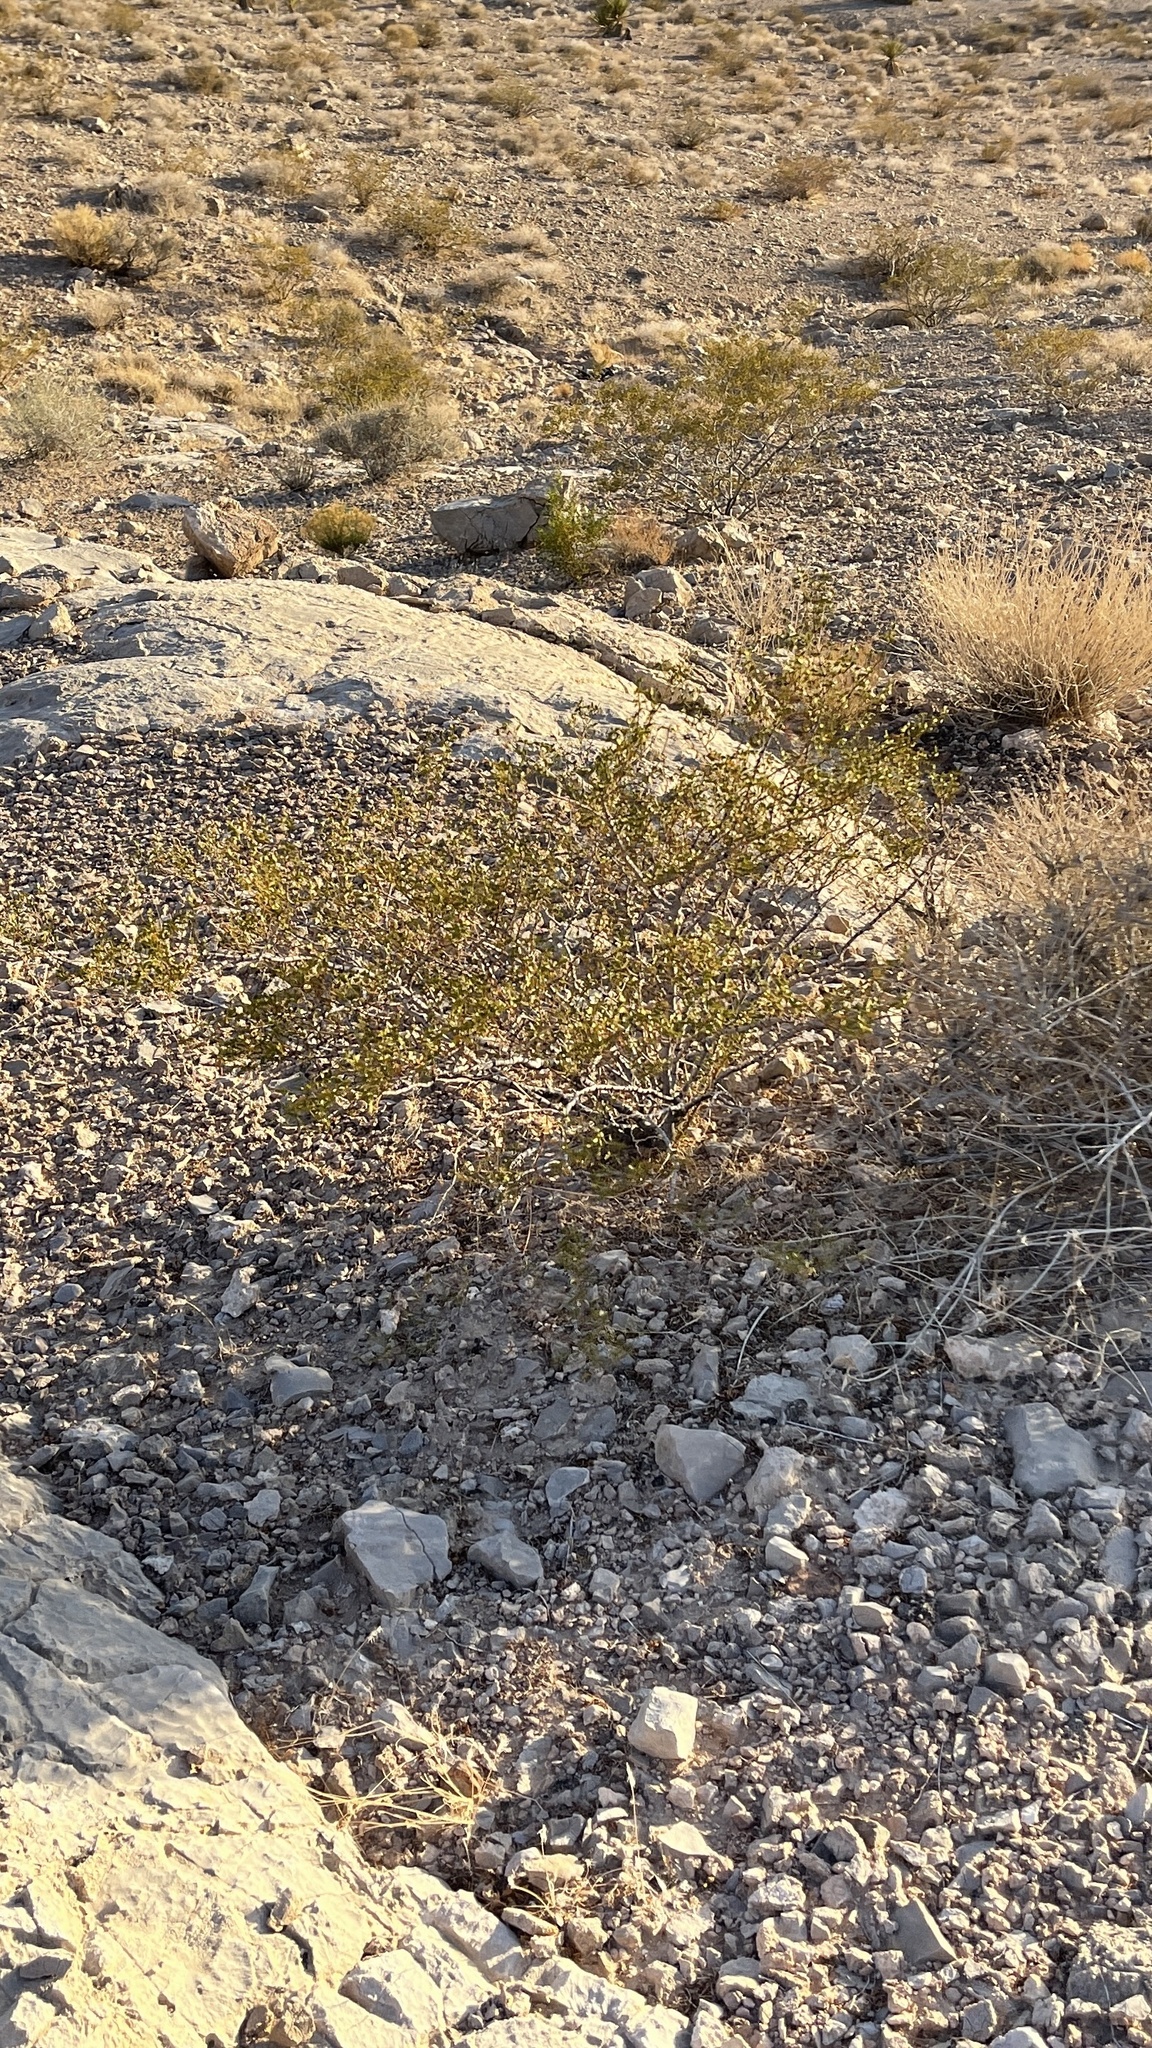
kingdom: Plantae
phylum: Tracheophyta
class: Magnoliopsida
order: Zygophyllales
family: Zygophyllaceae
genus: Larrea
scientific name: Larrea tridentata
